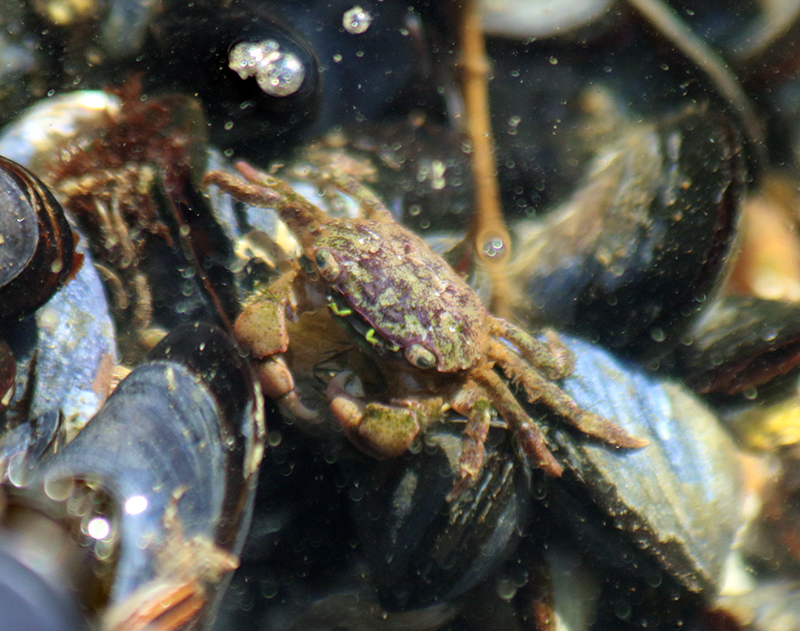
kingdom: Animalia
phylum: Arthropoda
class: Malacostraca
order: Decapoda
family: Varunidae
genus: Hemigrapsus
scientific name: Hemigrapsus oregonensis
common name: Yellow shore crab
